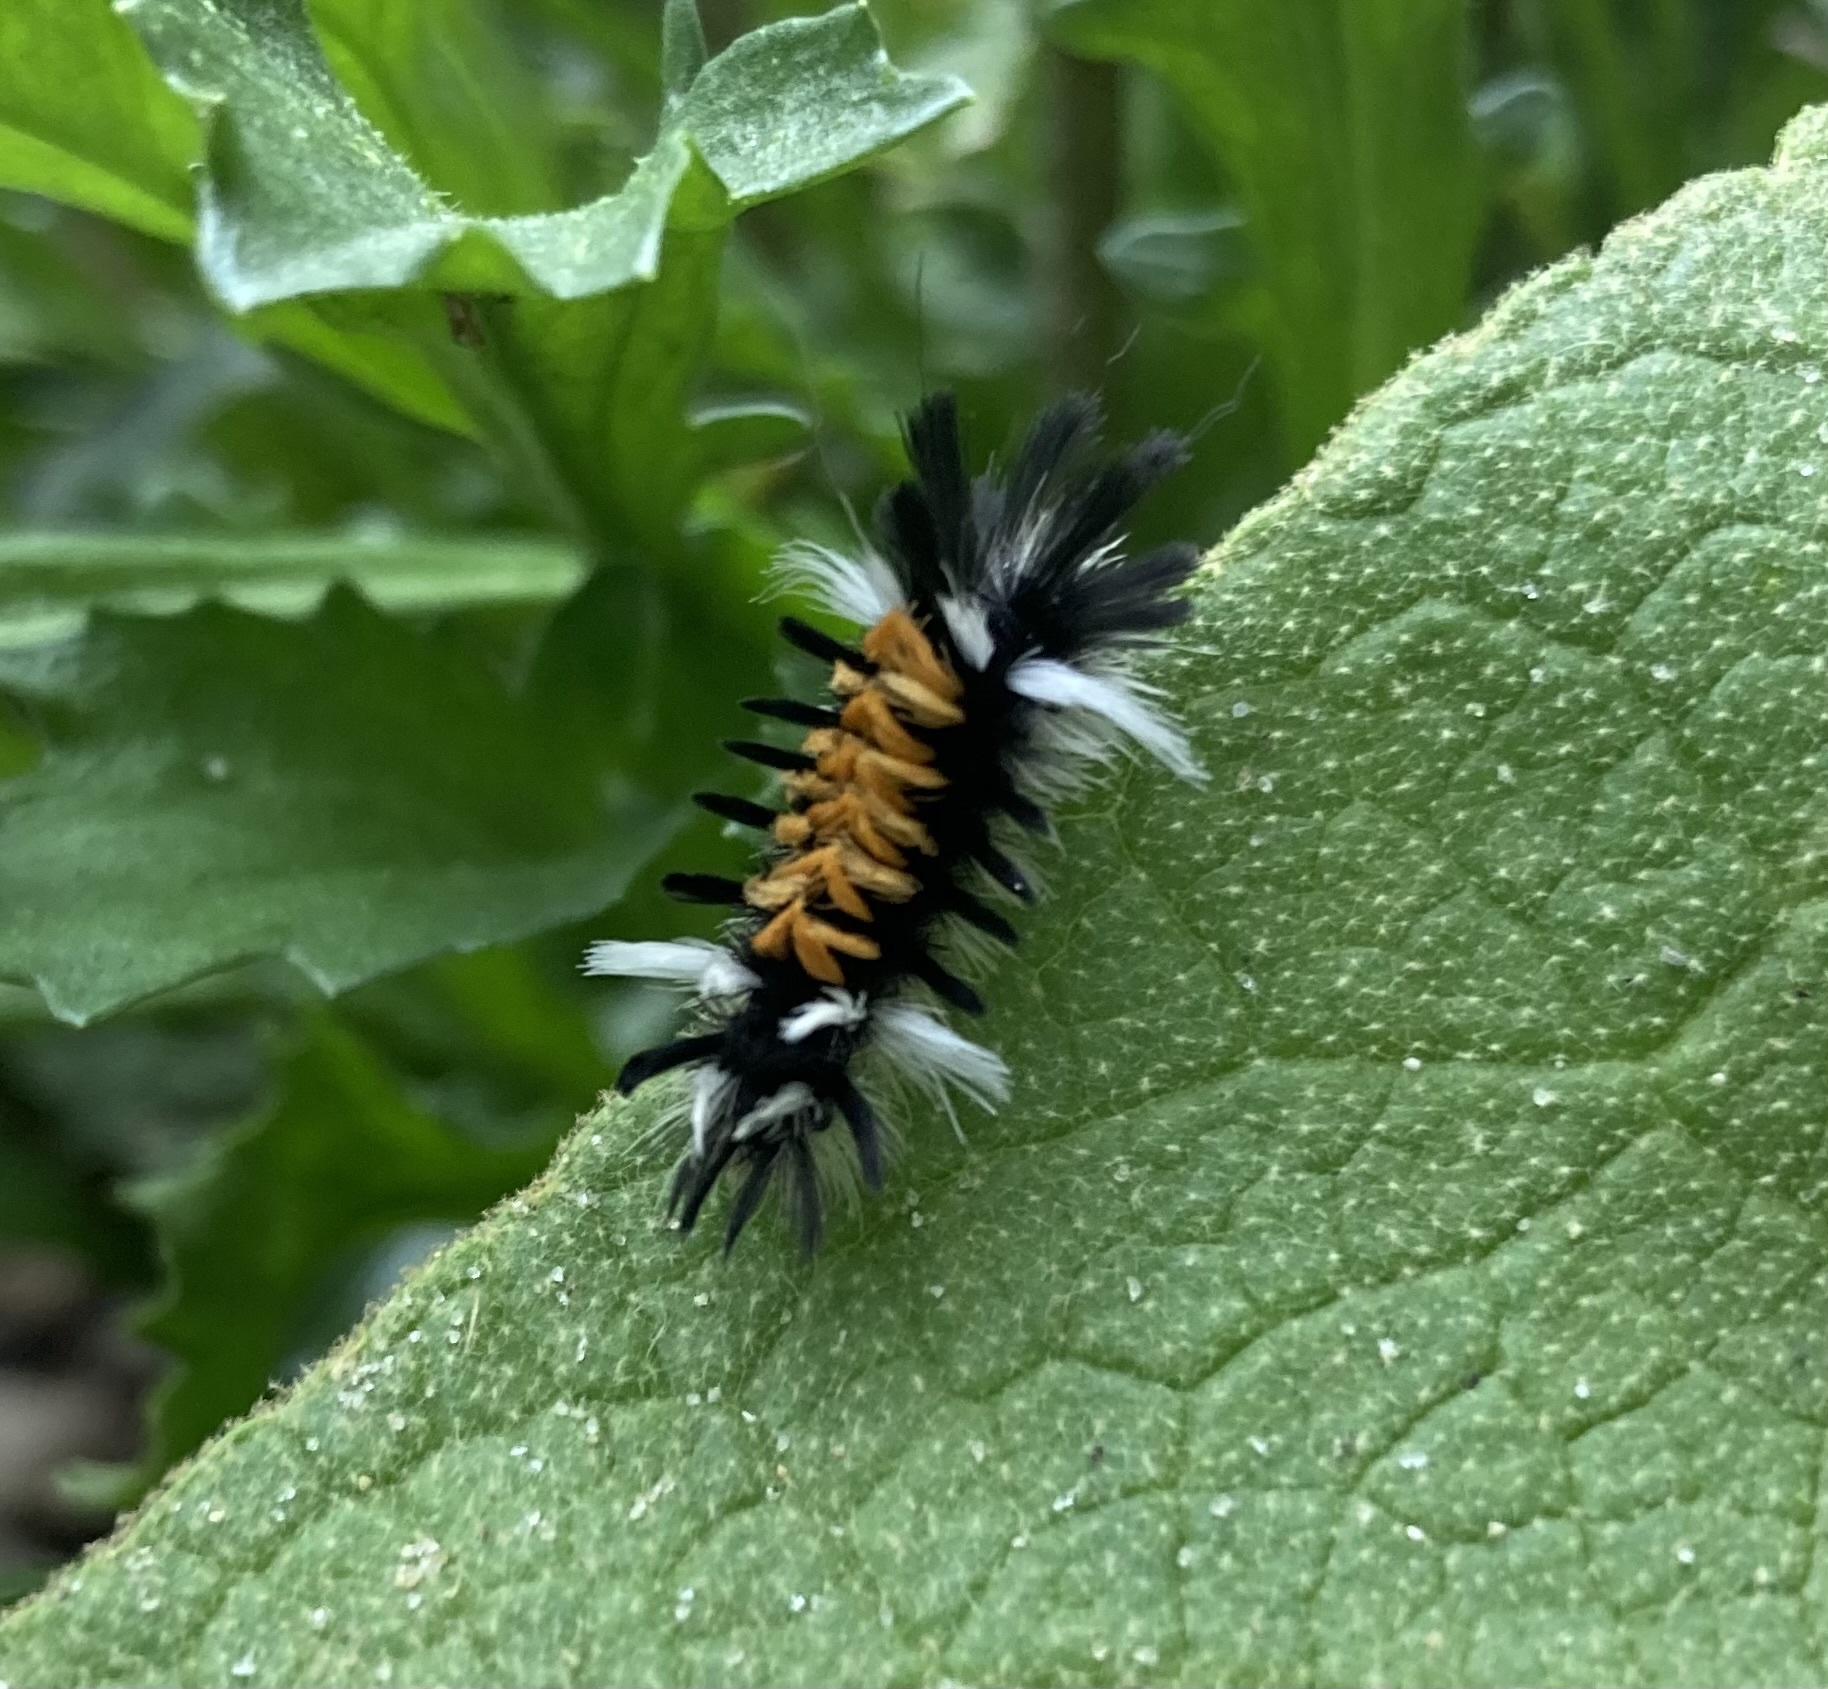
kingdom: Animalia
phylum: Arthropoda
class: Insecta
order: Lepidoptera
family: Erebidae
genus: Euchaetes
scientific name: Euchaetes egle
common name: Milkweed tussock moth
